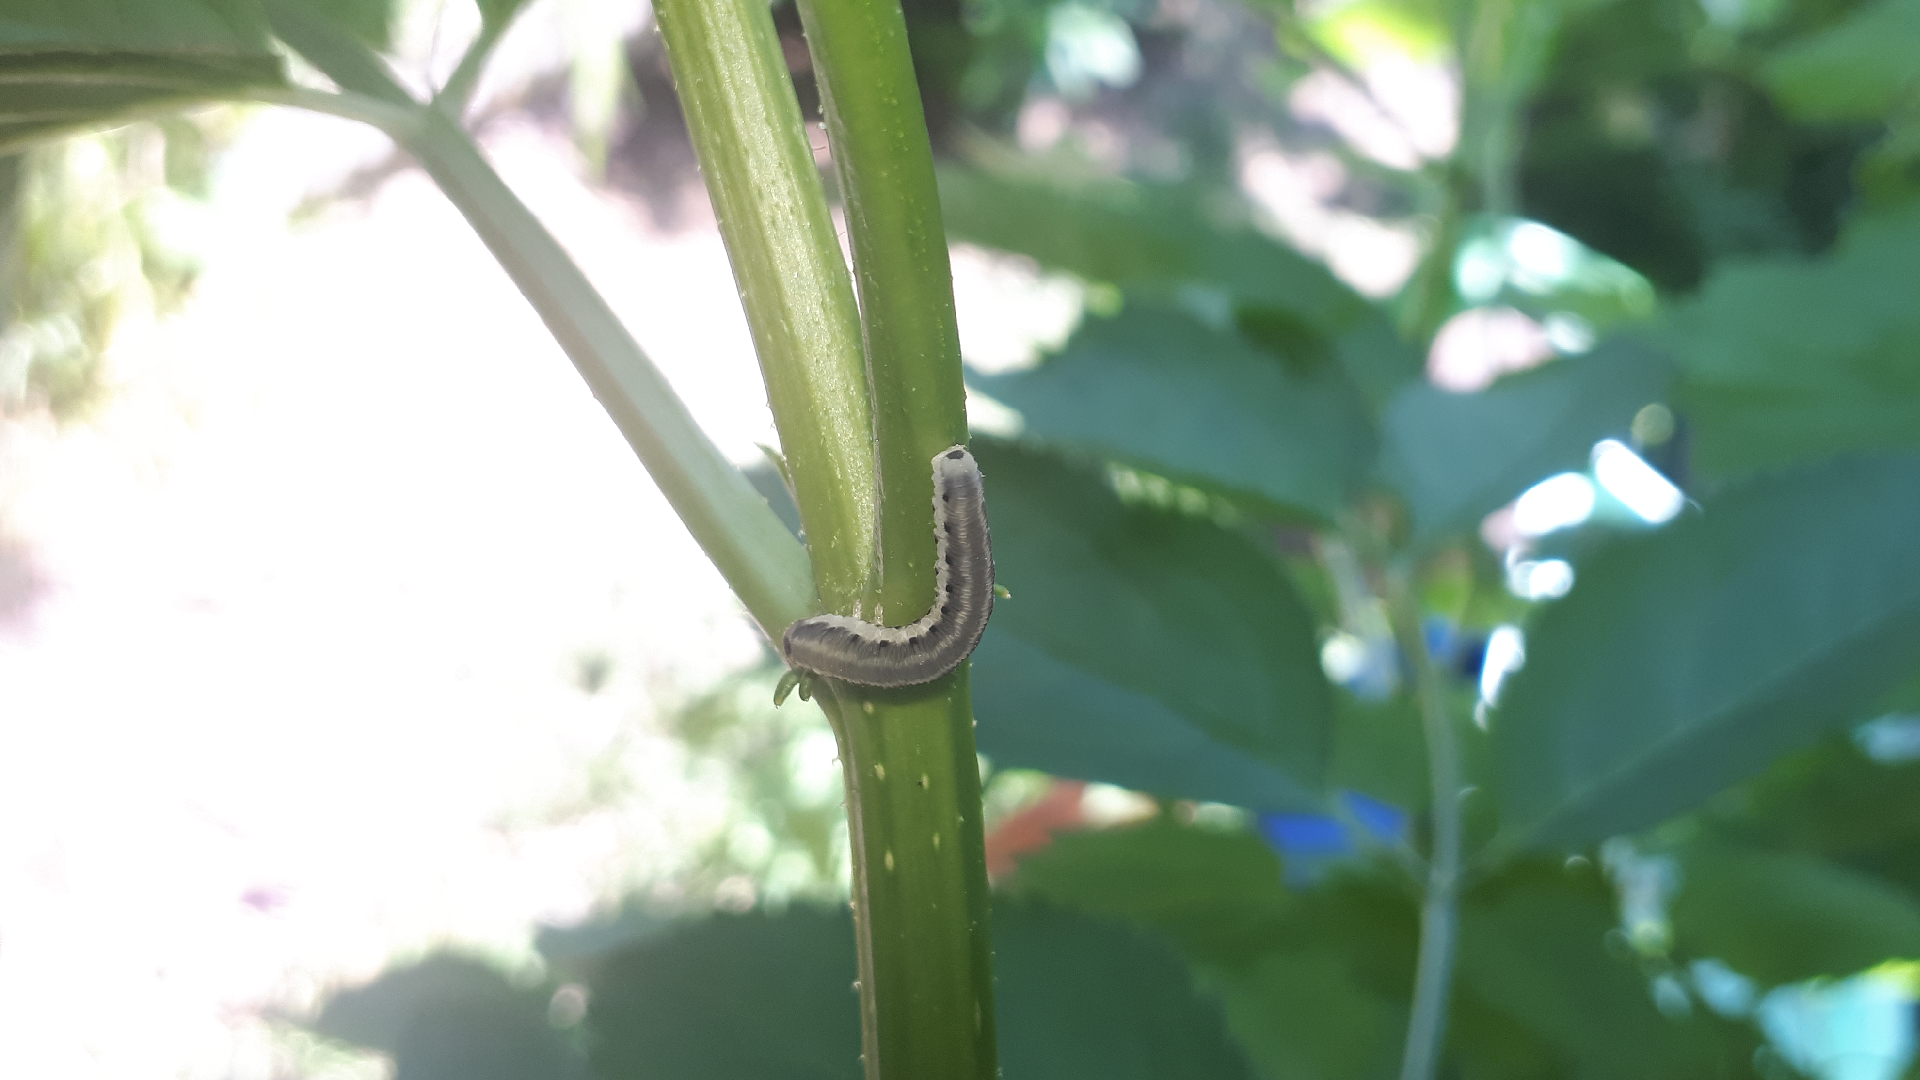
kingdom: Animalia
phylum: Arthropoda
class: Insecta
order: Hymenoptera
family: Tenthredinidae
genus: Macrophya
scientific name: Macrophya alboannulata
